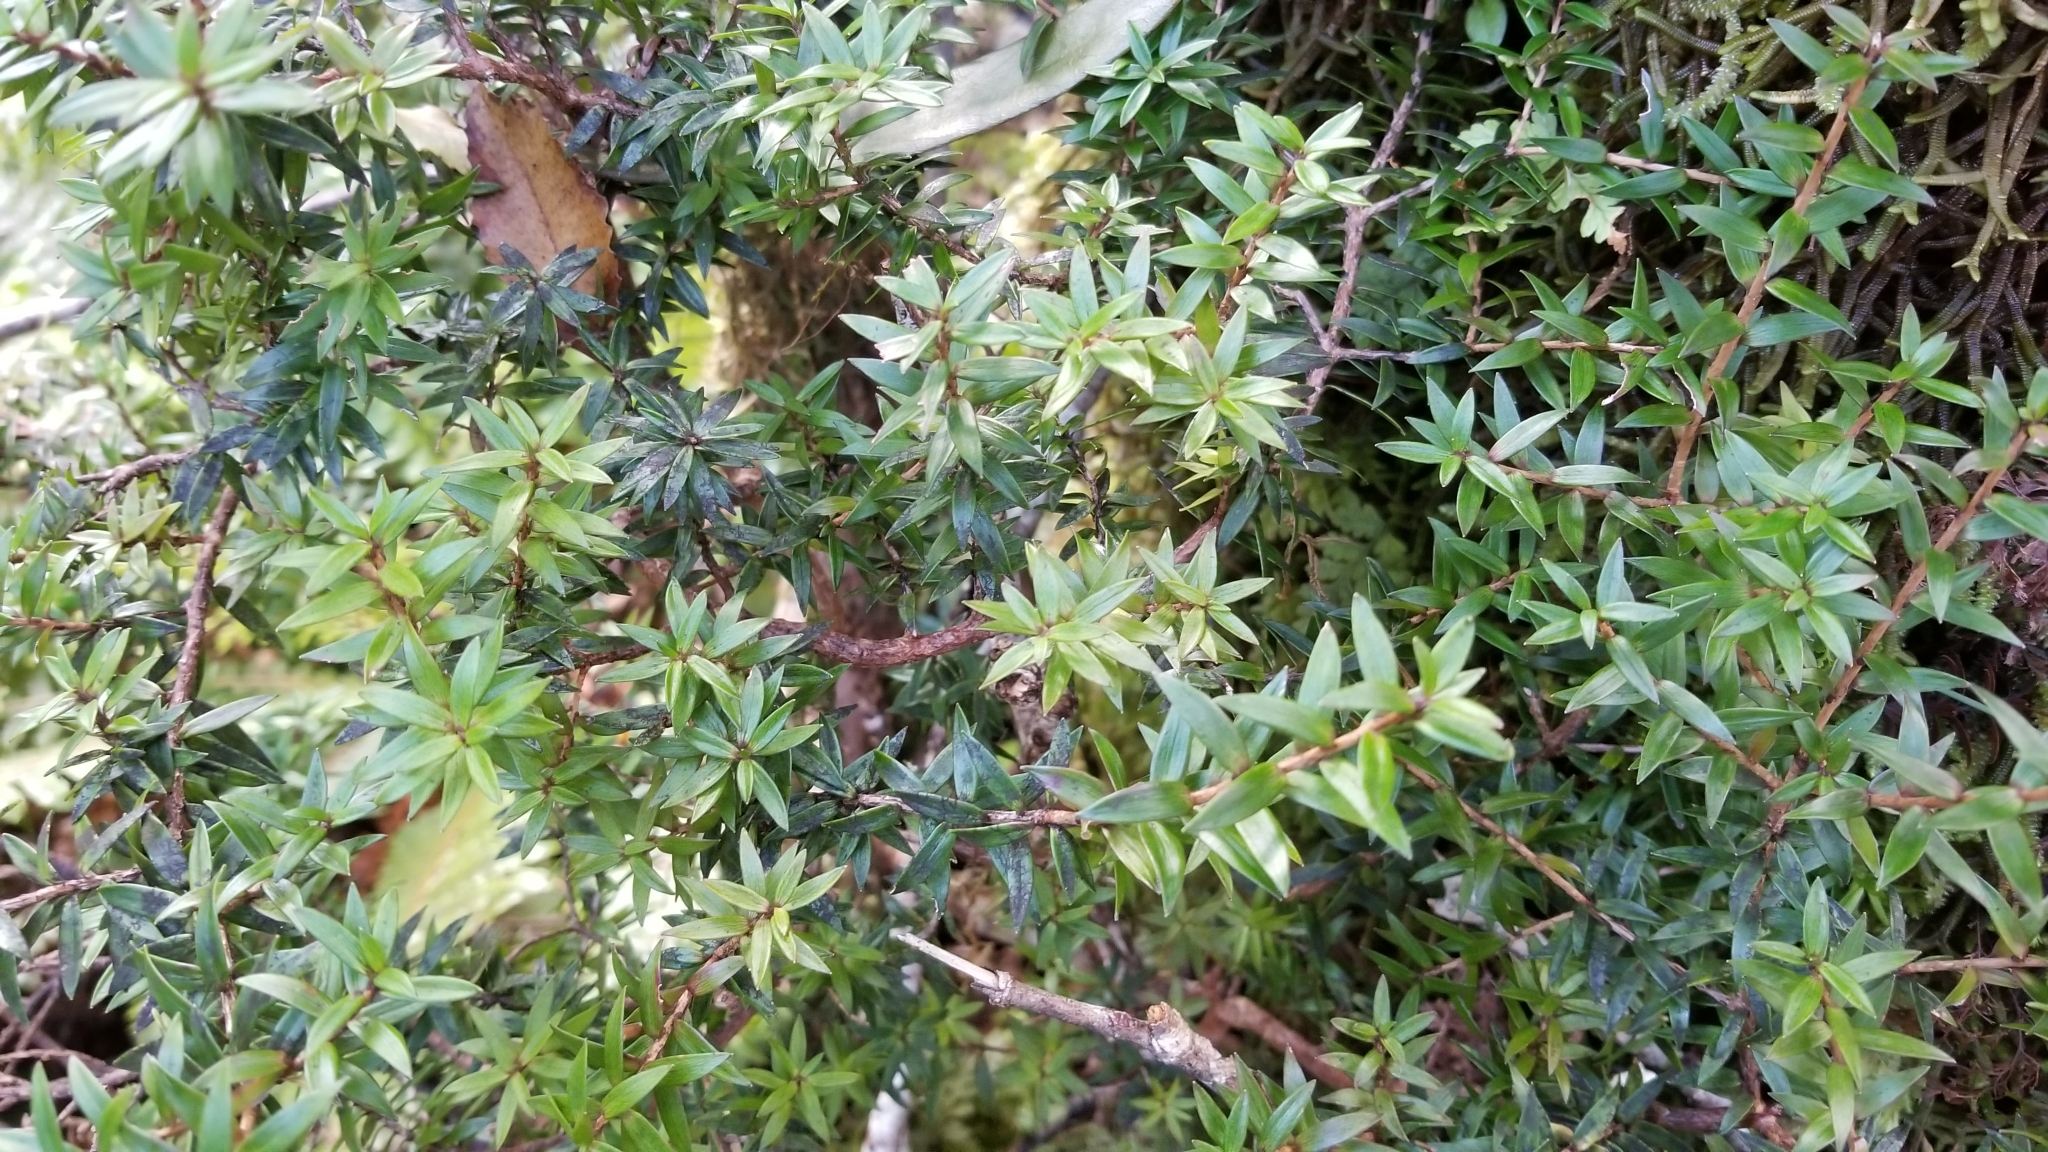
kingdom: Plantae
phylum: Tracheophyta
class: Magnoliopsida
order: Ericales
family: Ericaceae
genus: Archeria
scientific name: Archeria traversii
